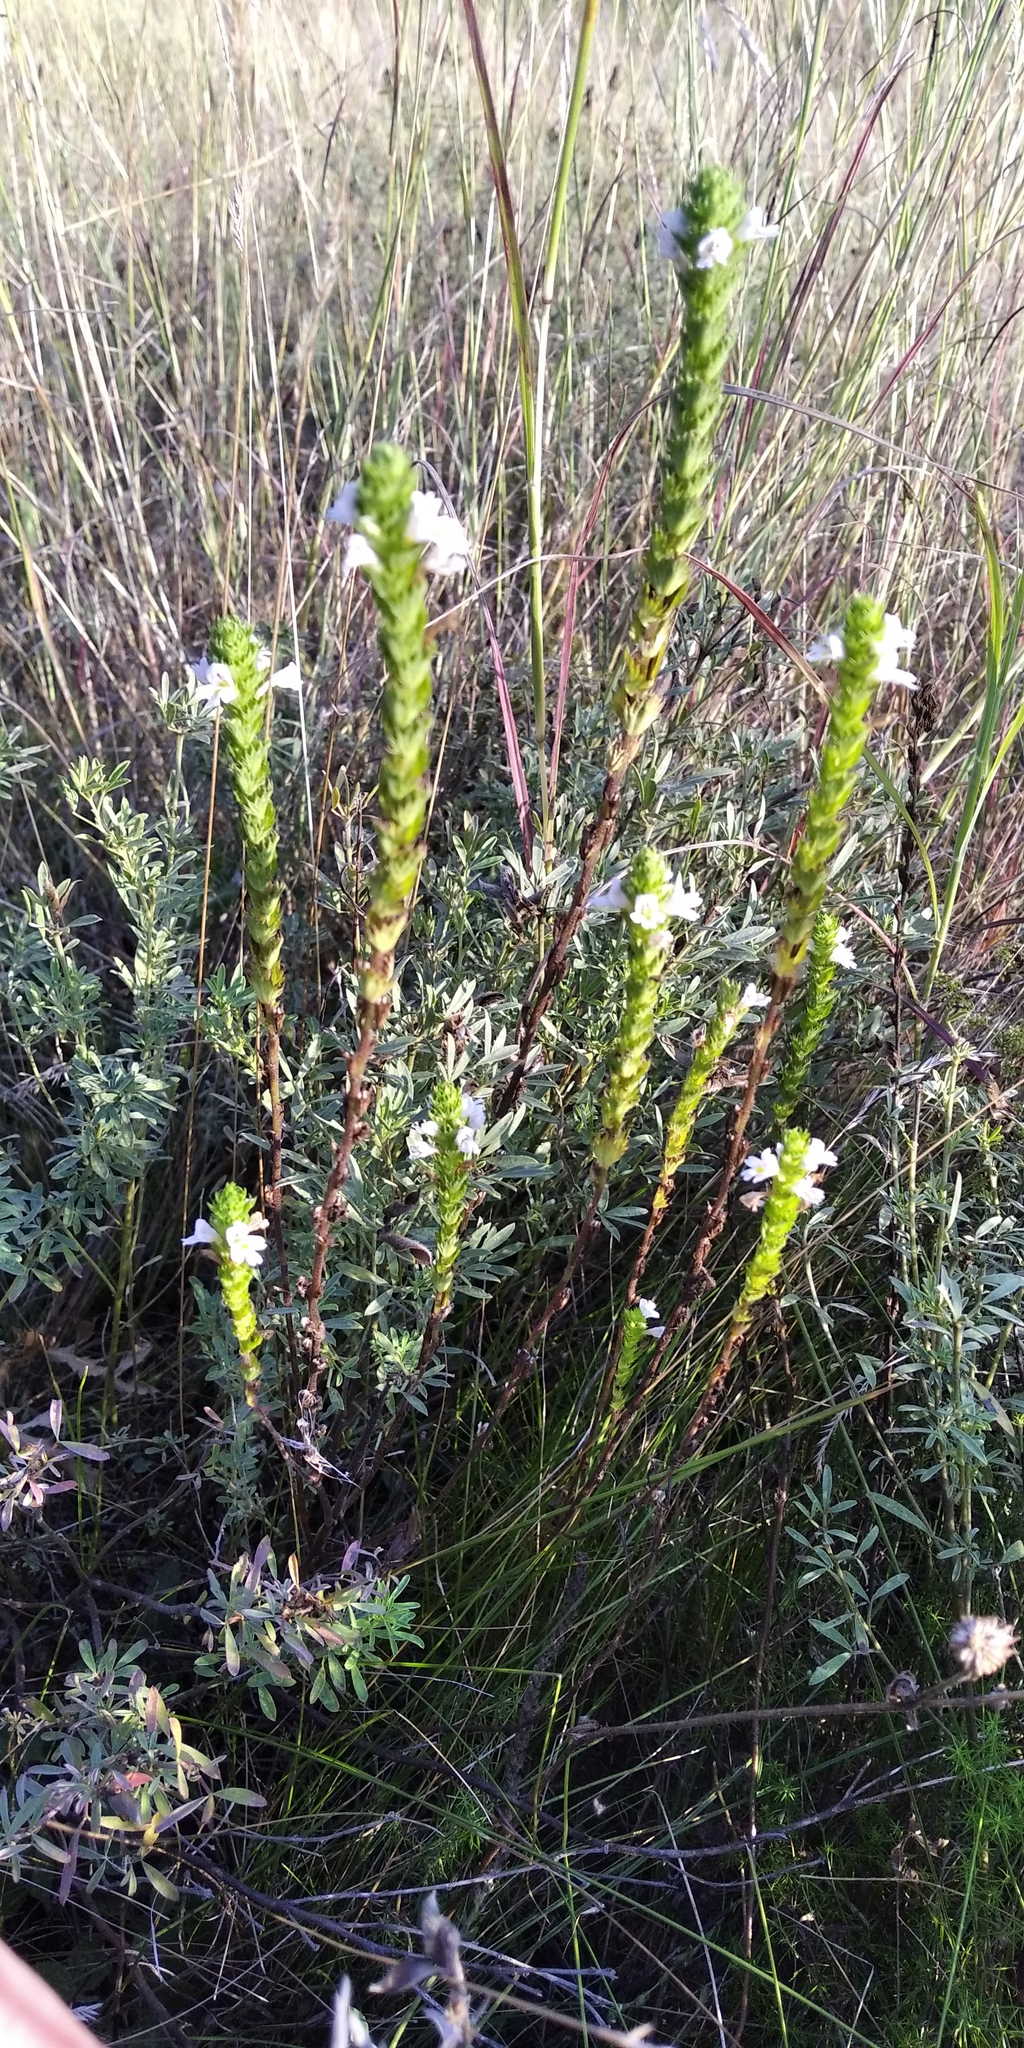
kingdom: Plantae
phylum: Tracheophyta
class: Magnoliopsida
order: Lamiales
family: Orobanchaceae
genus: Euphrasia
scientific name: Euphrasia stricta
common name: Drug eyebright
